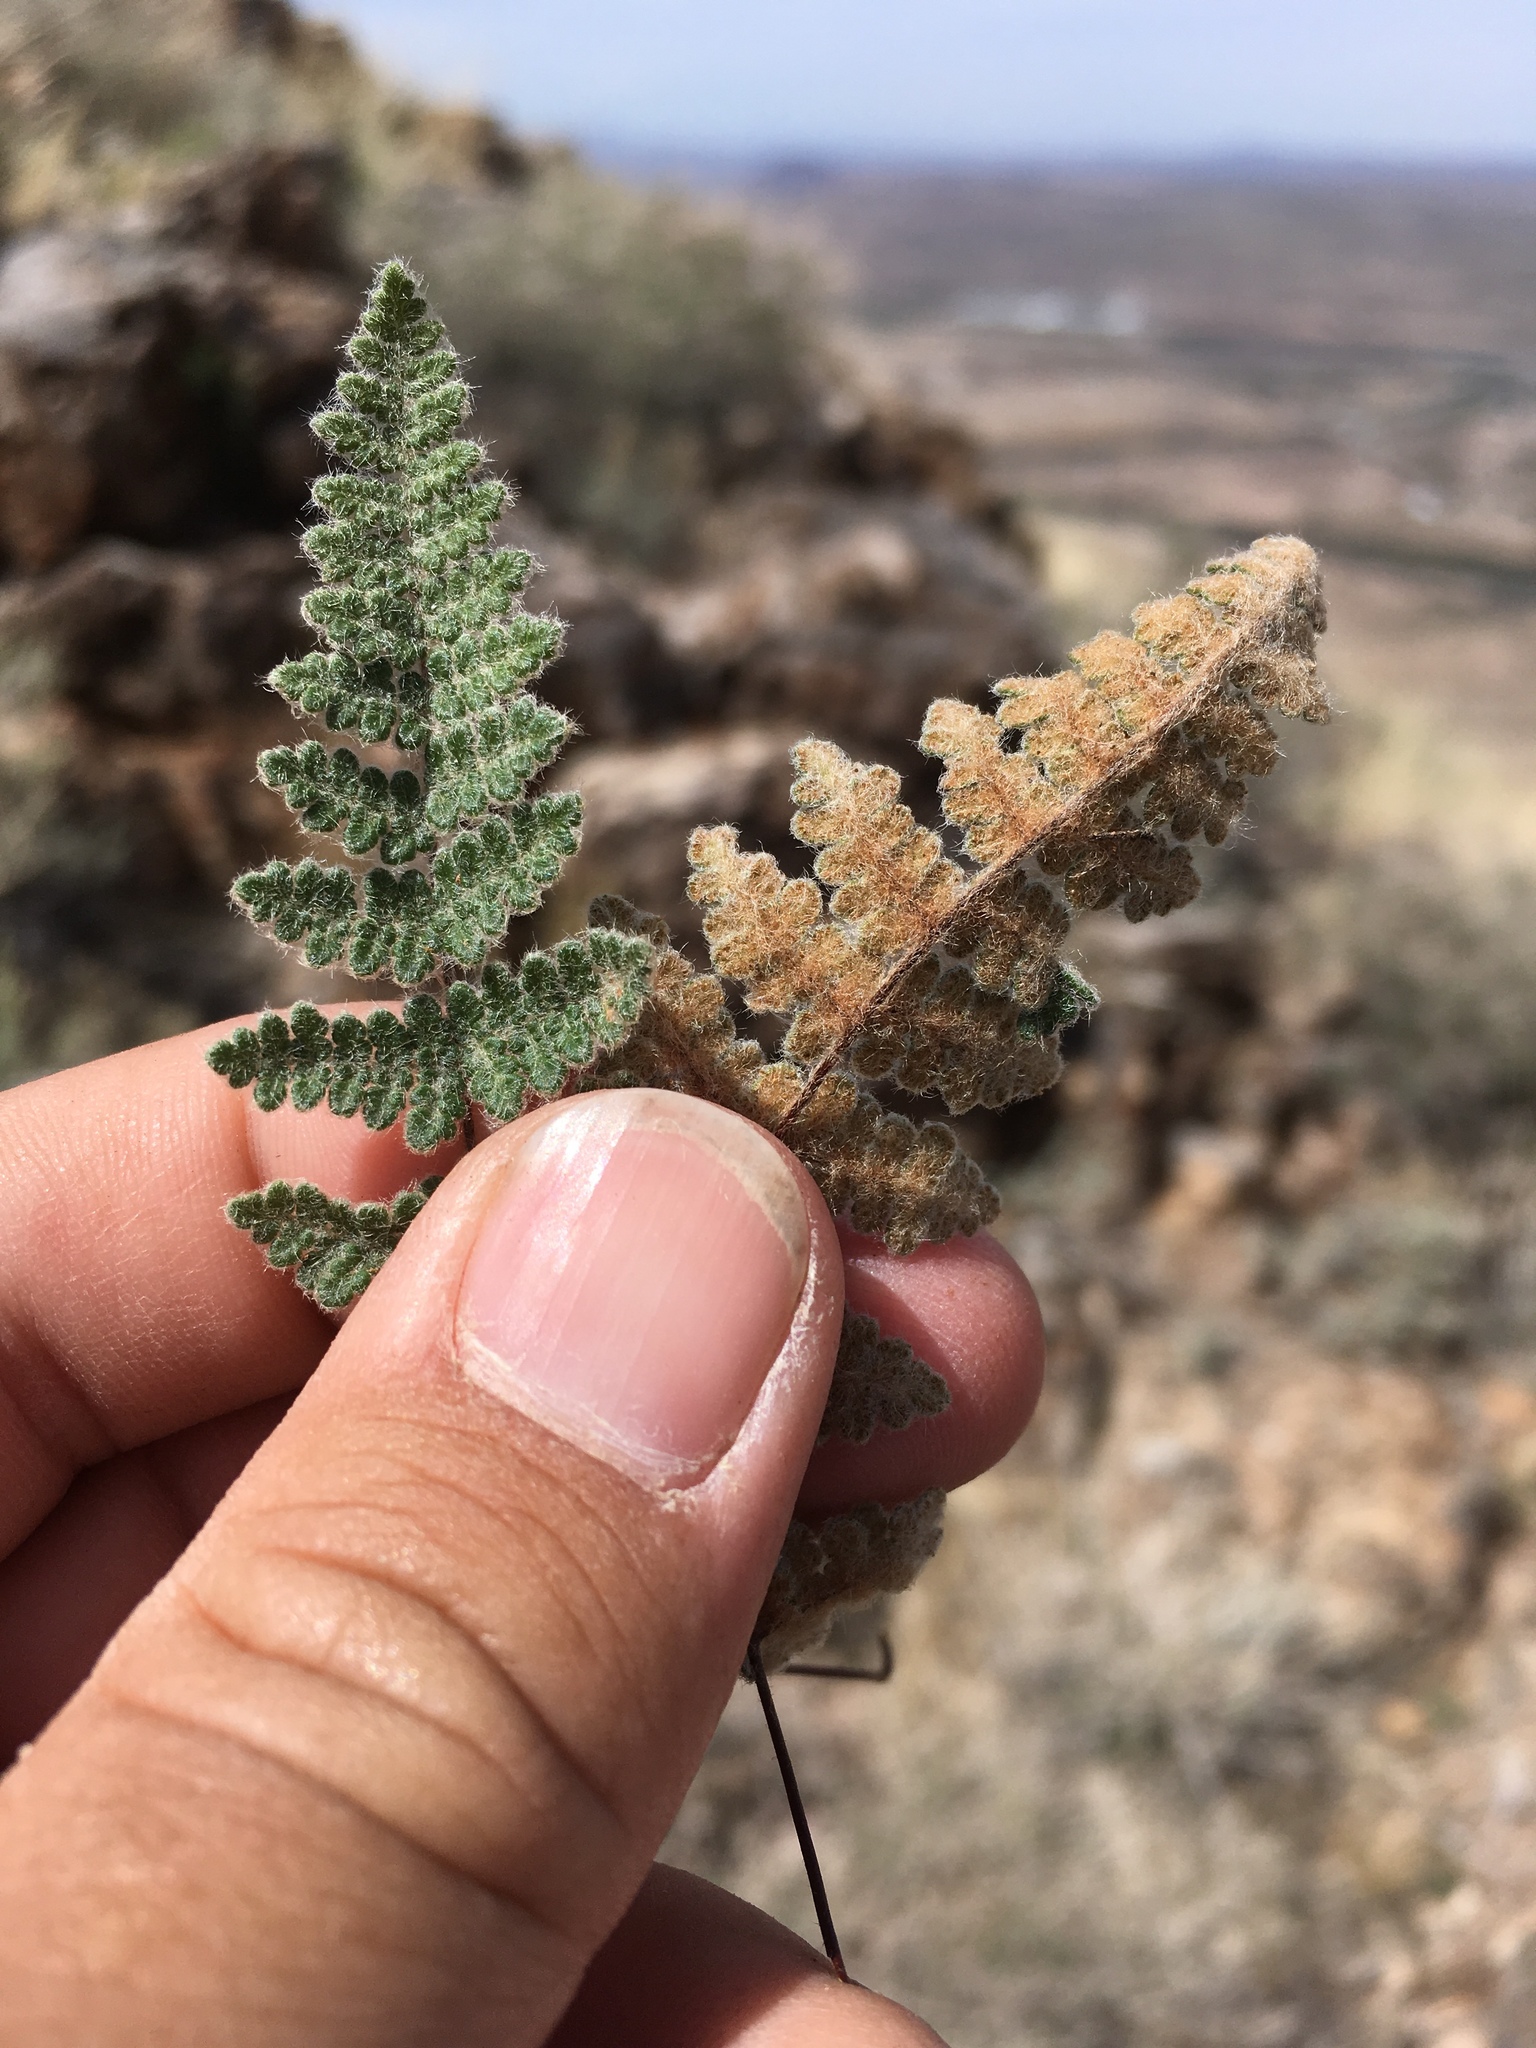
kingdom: Plantae
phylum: Tracheophyta
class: Polypodiopsida
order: Polypodiales
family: Pteridaceae
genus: Myriopteris
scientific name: Myriopteris gracilis
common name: Fee's lip fern
